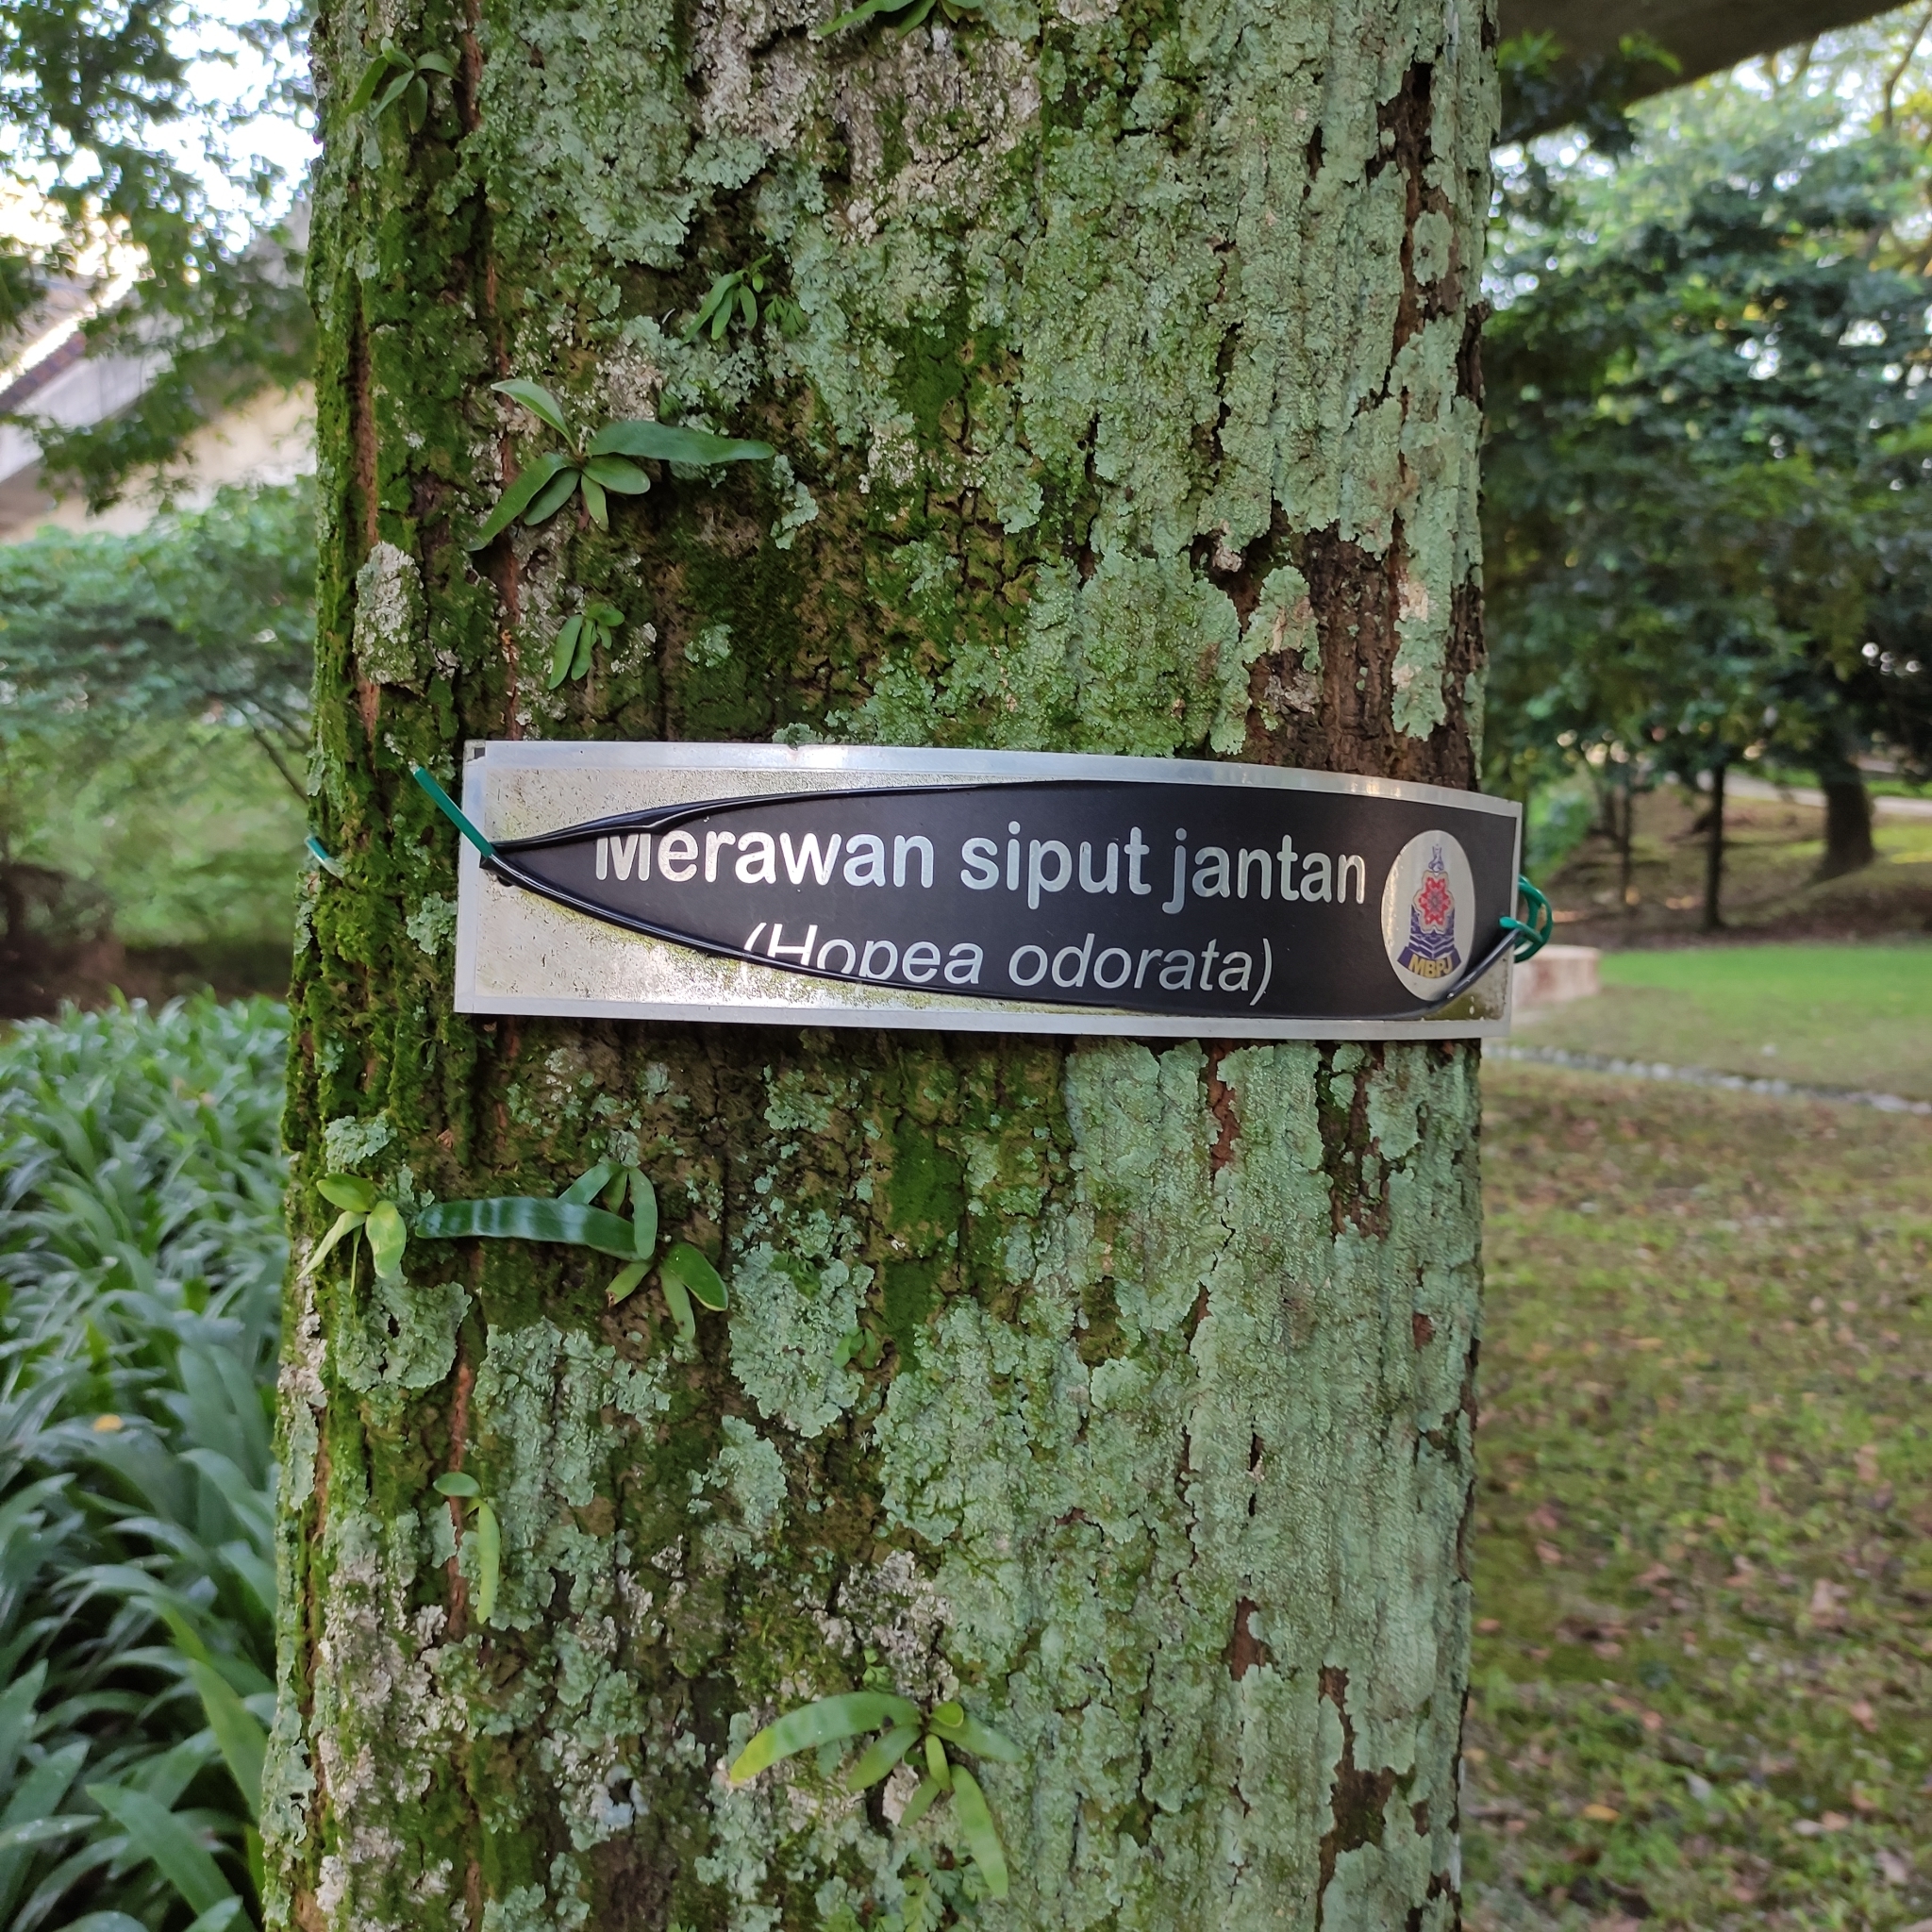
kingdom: Plantae
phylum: Tracheophyta
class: Magnoliopsida
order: Malvales
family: Dipterocarpaceae
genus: Hopea
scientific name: Hopea odorata
